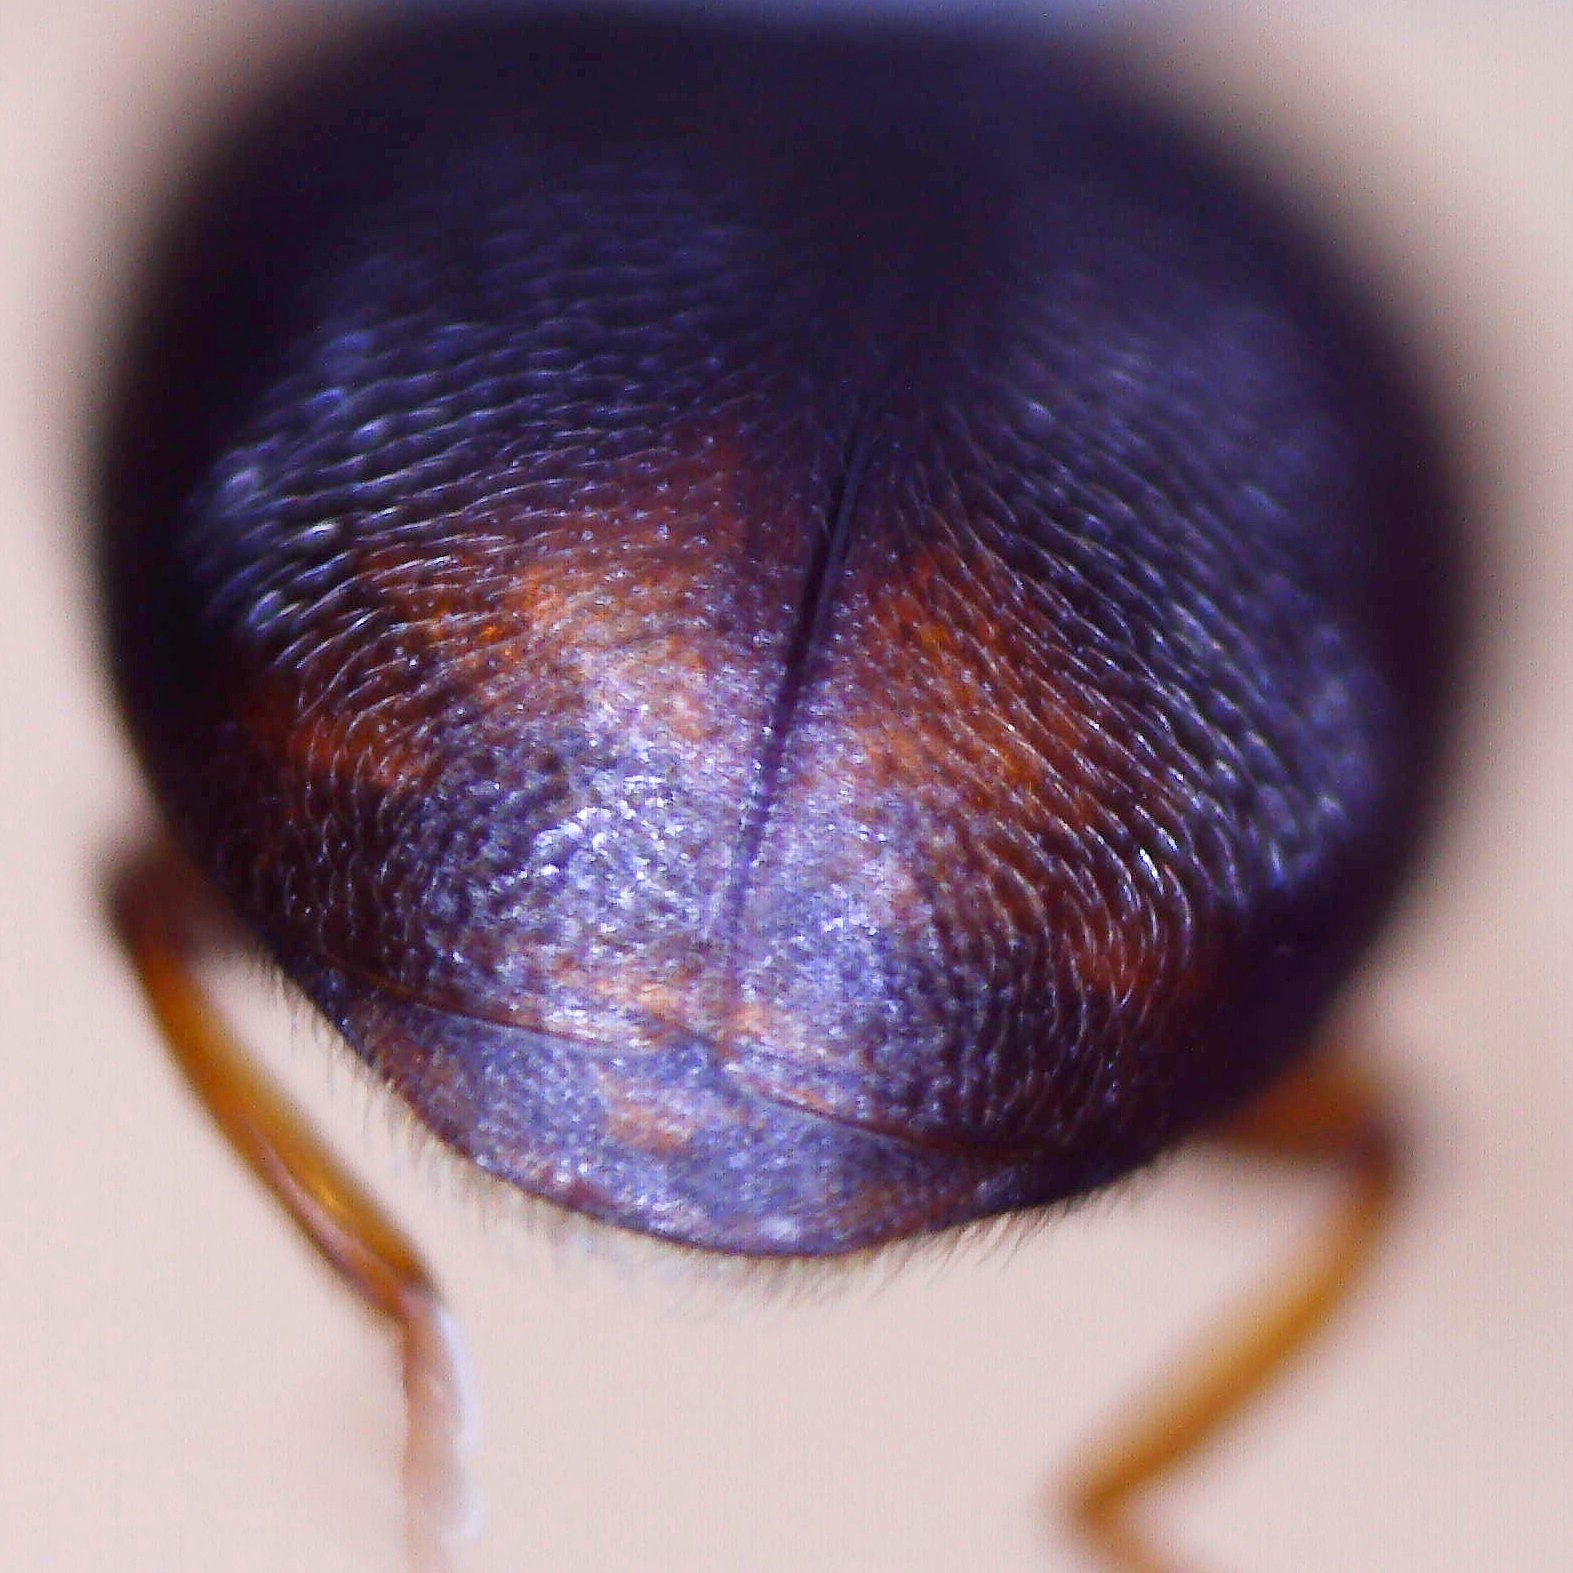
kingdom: Animalia
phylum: Arthropoda
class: Insecta
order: Coleoptera
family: Coccinellidae
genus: Scymnus
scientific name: Scymnus haemorrhoidalis
